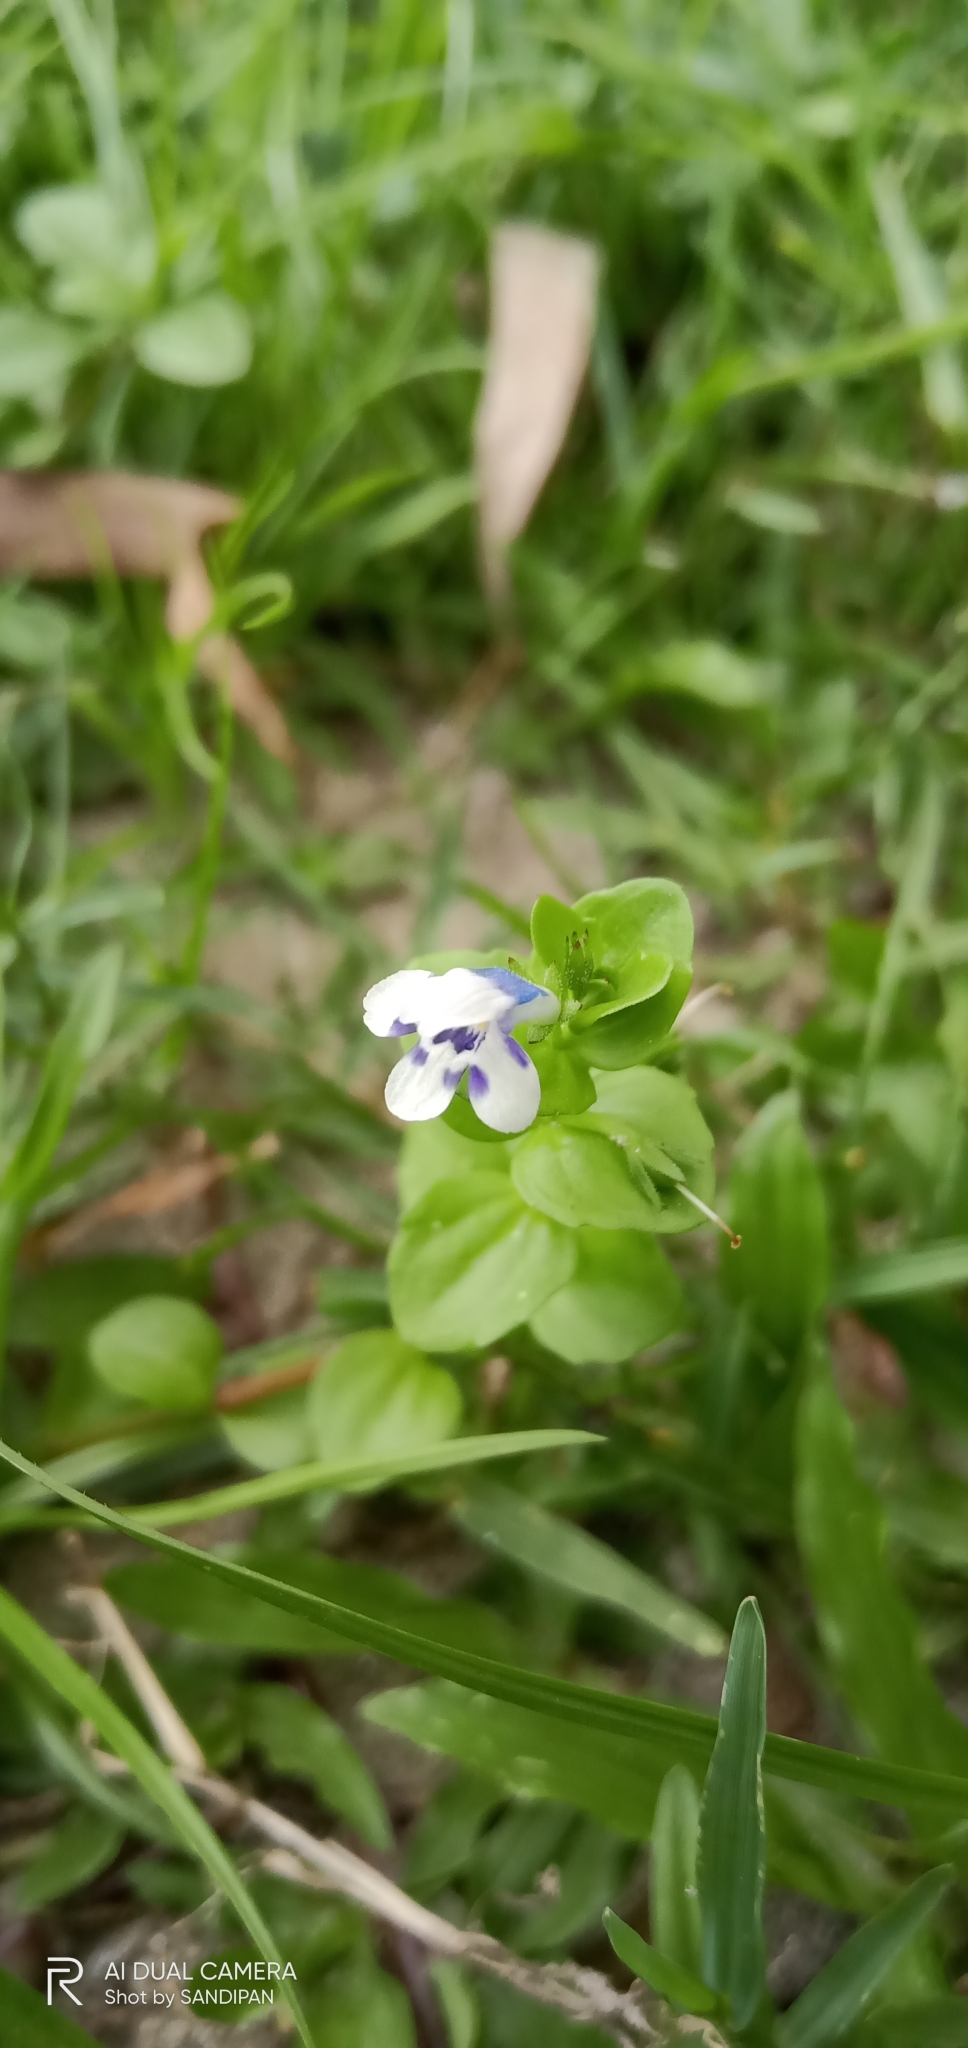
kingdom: Plantae
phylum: Tracheophyta
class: Magnoliopsida
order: Lamiales
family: Linderniaceae
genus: Lindernia
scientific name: Lindernia rotundifolia
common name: Baby’s tears
